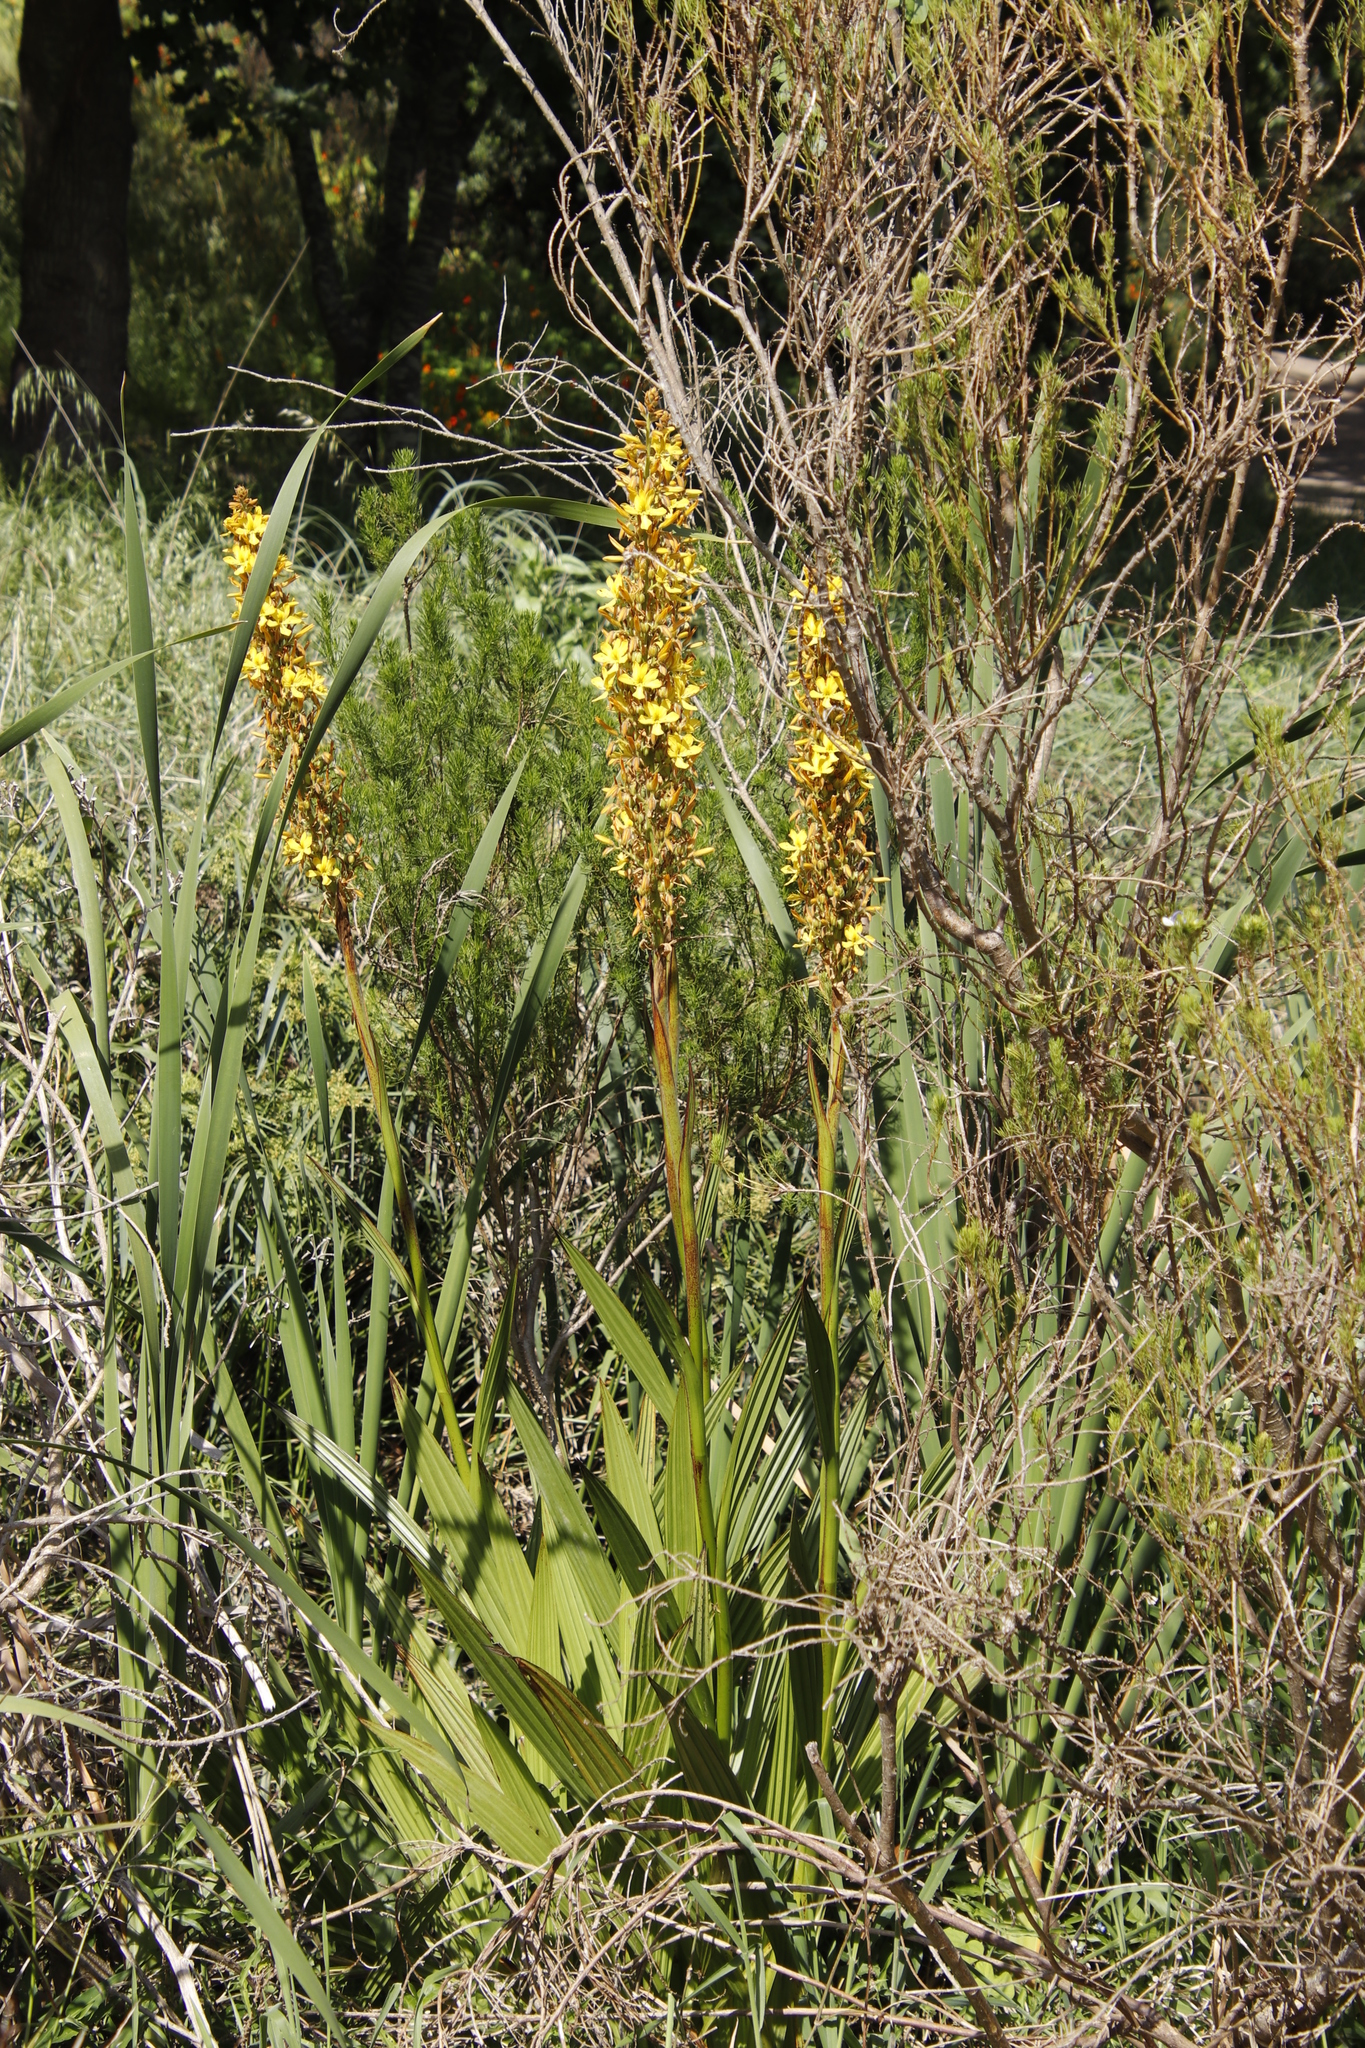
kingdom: Plantae
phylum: Tracheophyta
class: Liliopsida
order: Commelinales
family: Haemodoraceae
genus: Wachendorfia
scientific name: Wachendorfia thyrsiflora
